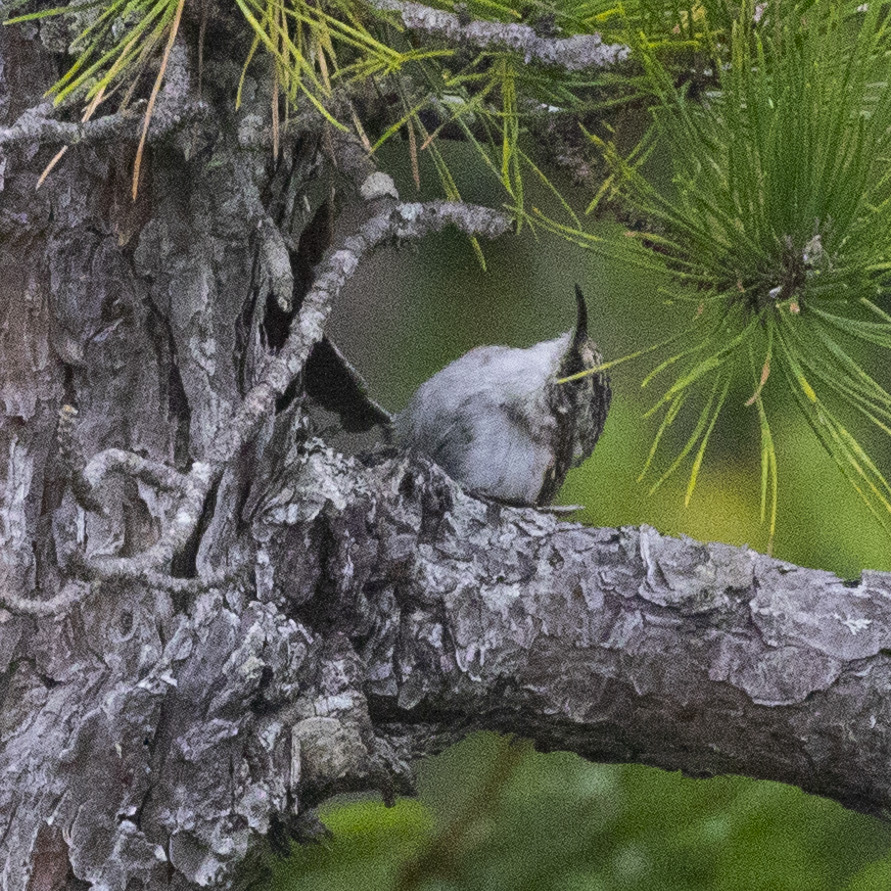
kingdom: Animalia
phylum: Chordata
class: Aves
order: Passeriformes
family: Certhiidae
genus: Certhia
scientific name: Certhia americana
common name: Brown creeper
